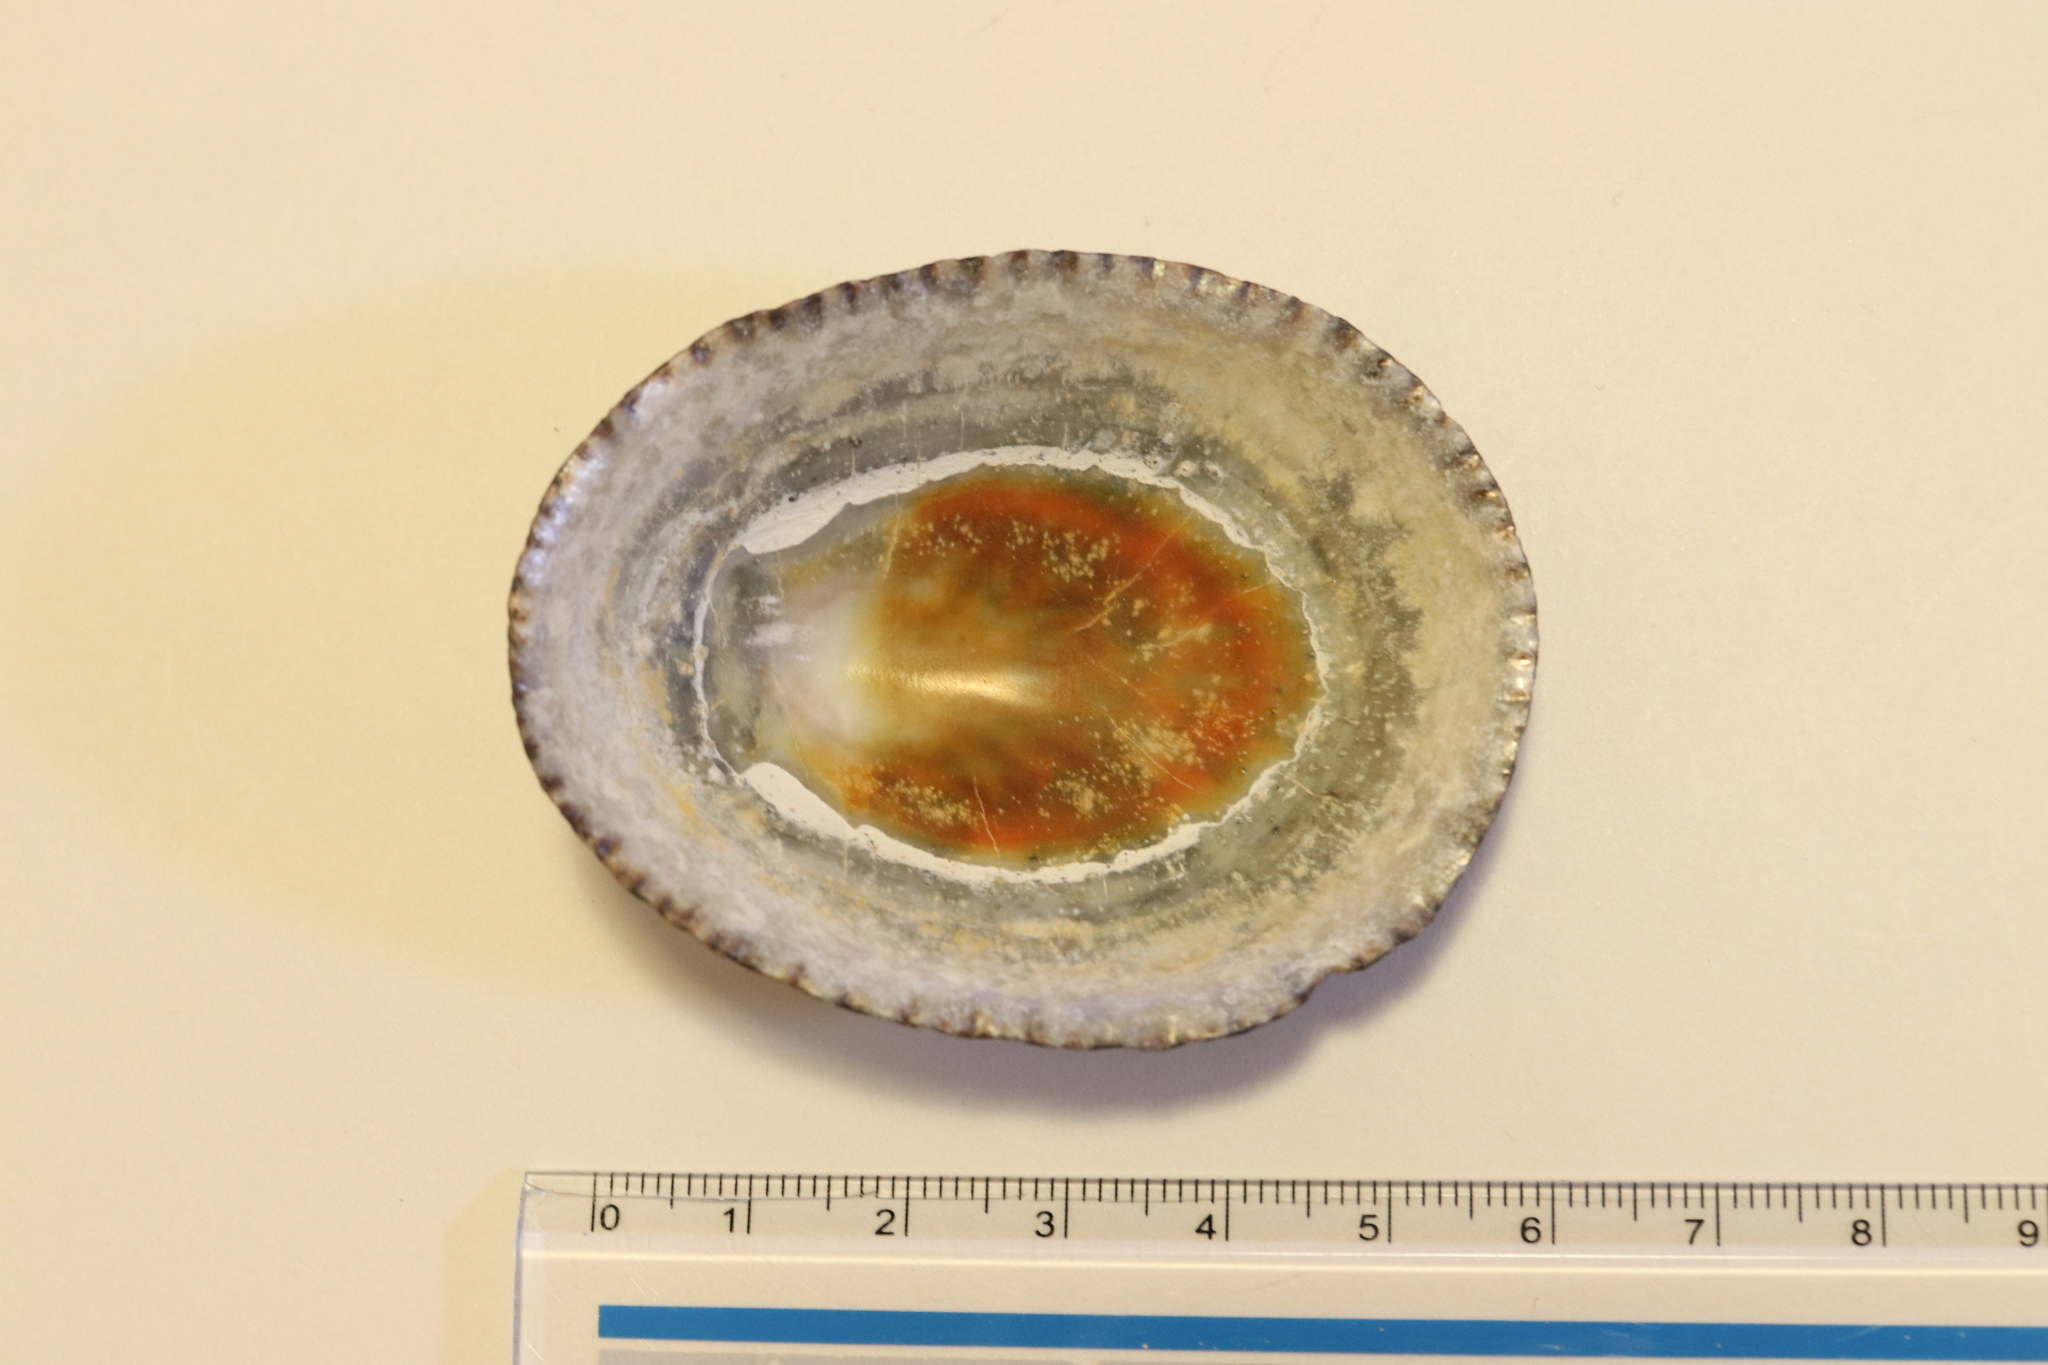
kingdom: Animalia
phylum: Mollusca
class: Gastropoda
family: Nacellidae
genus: Cellana
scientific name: Cellana nigrolineata
